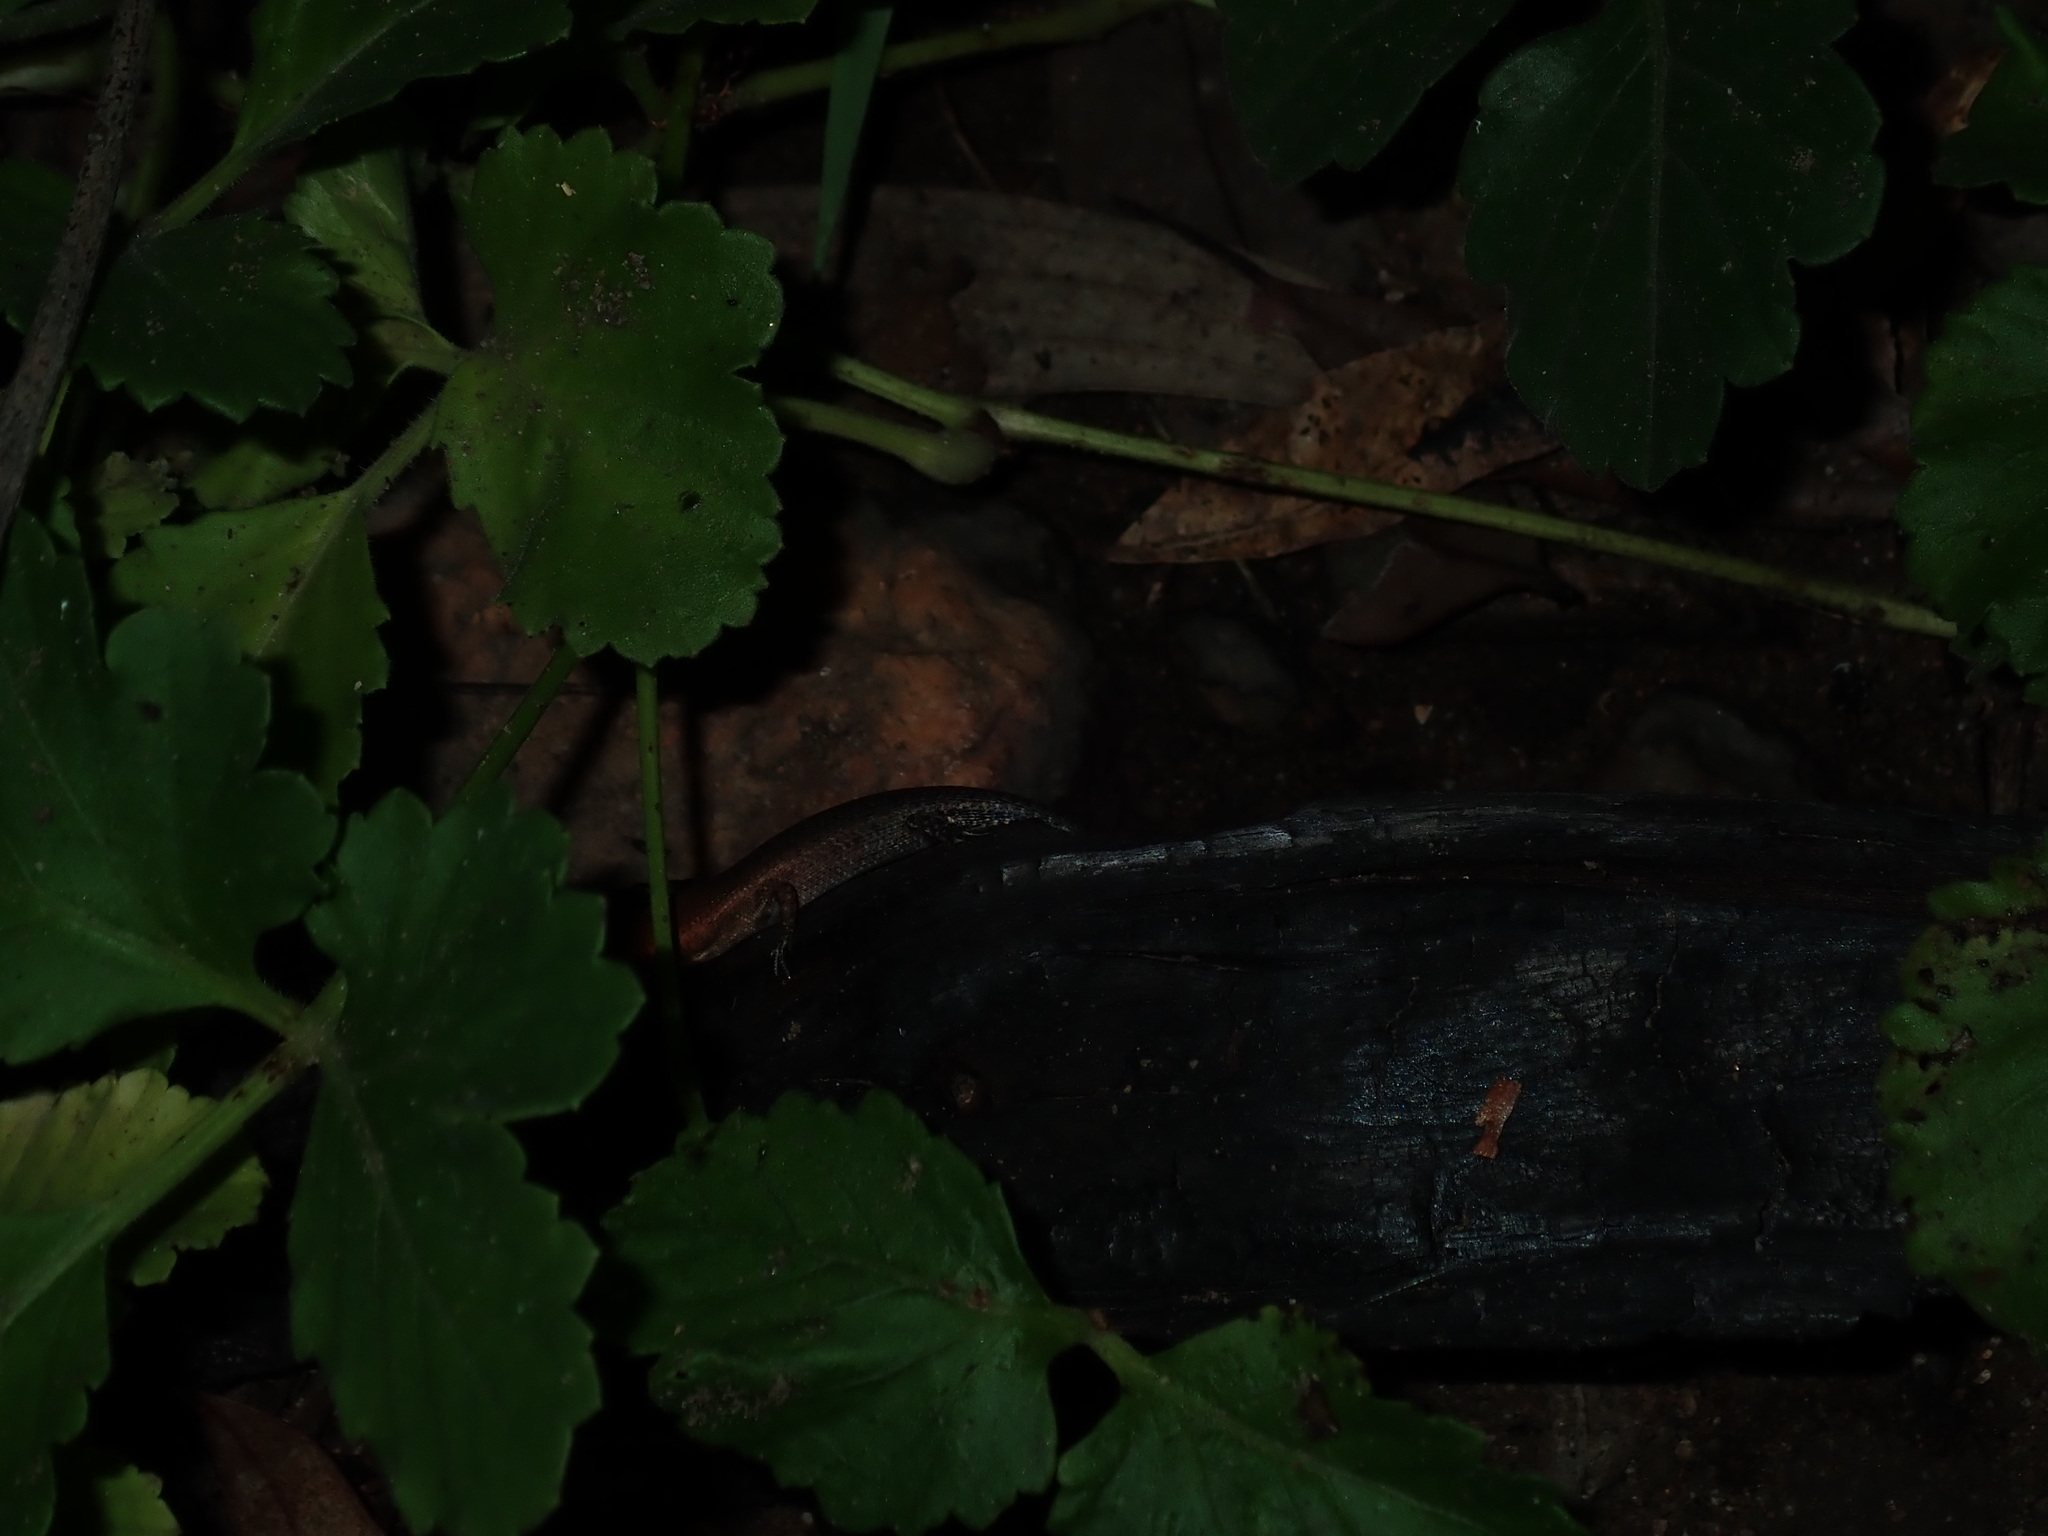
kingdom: Animalia
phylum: Chordata
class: Squamata
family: Scincidae
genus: Carlia
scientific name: Carlia
